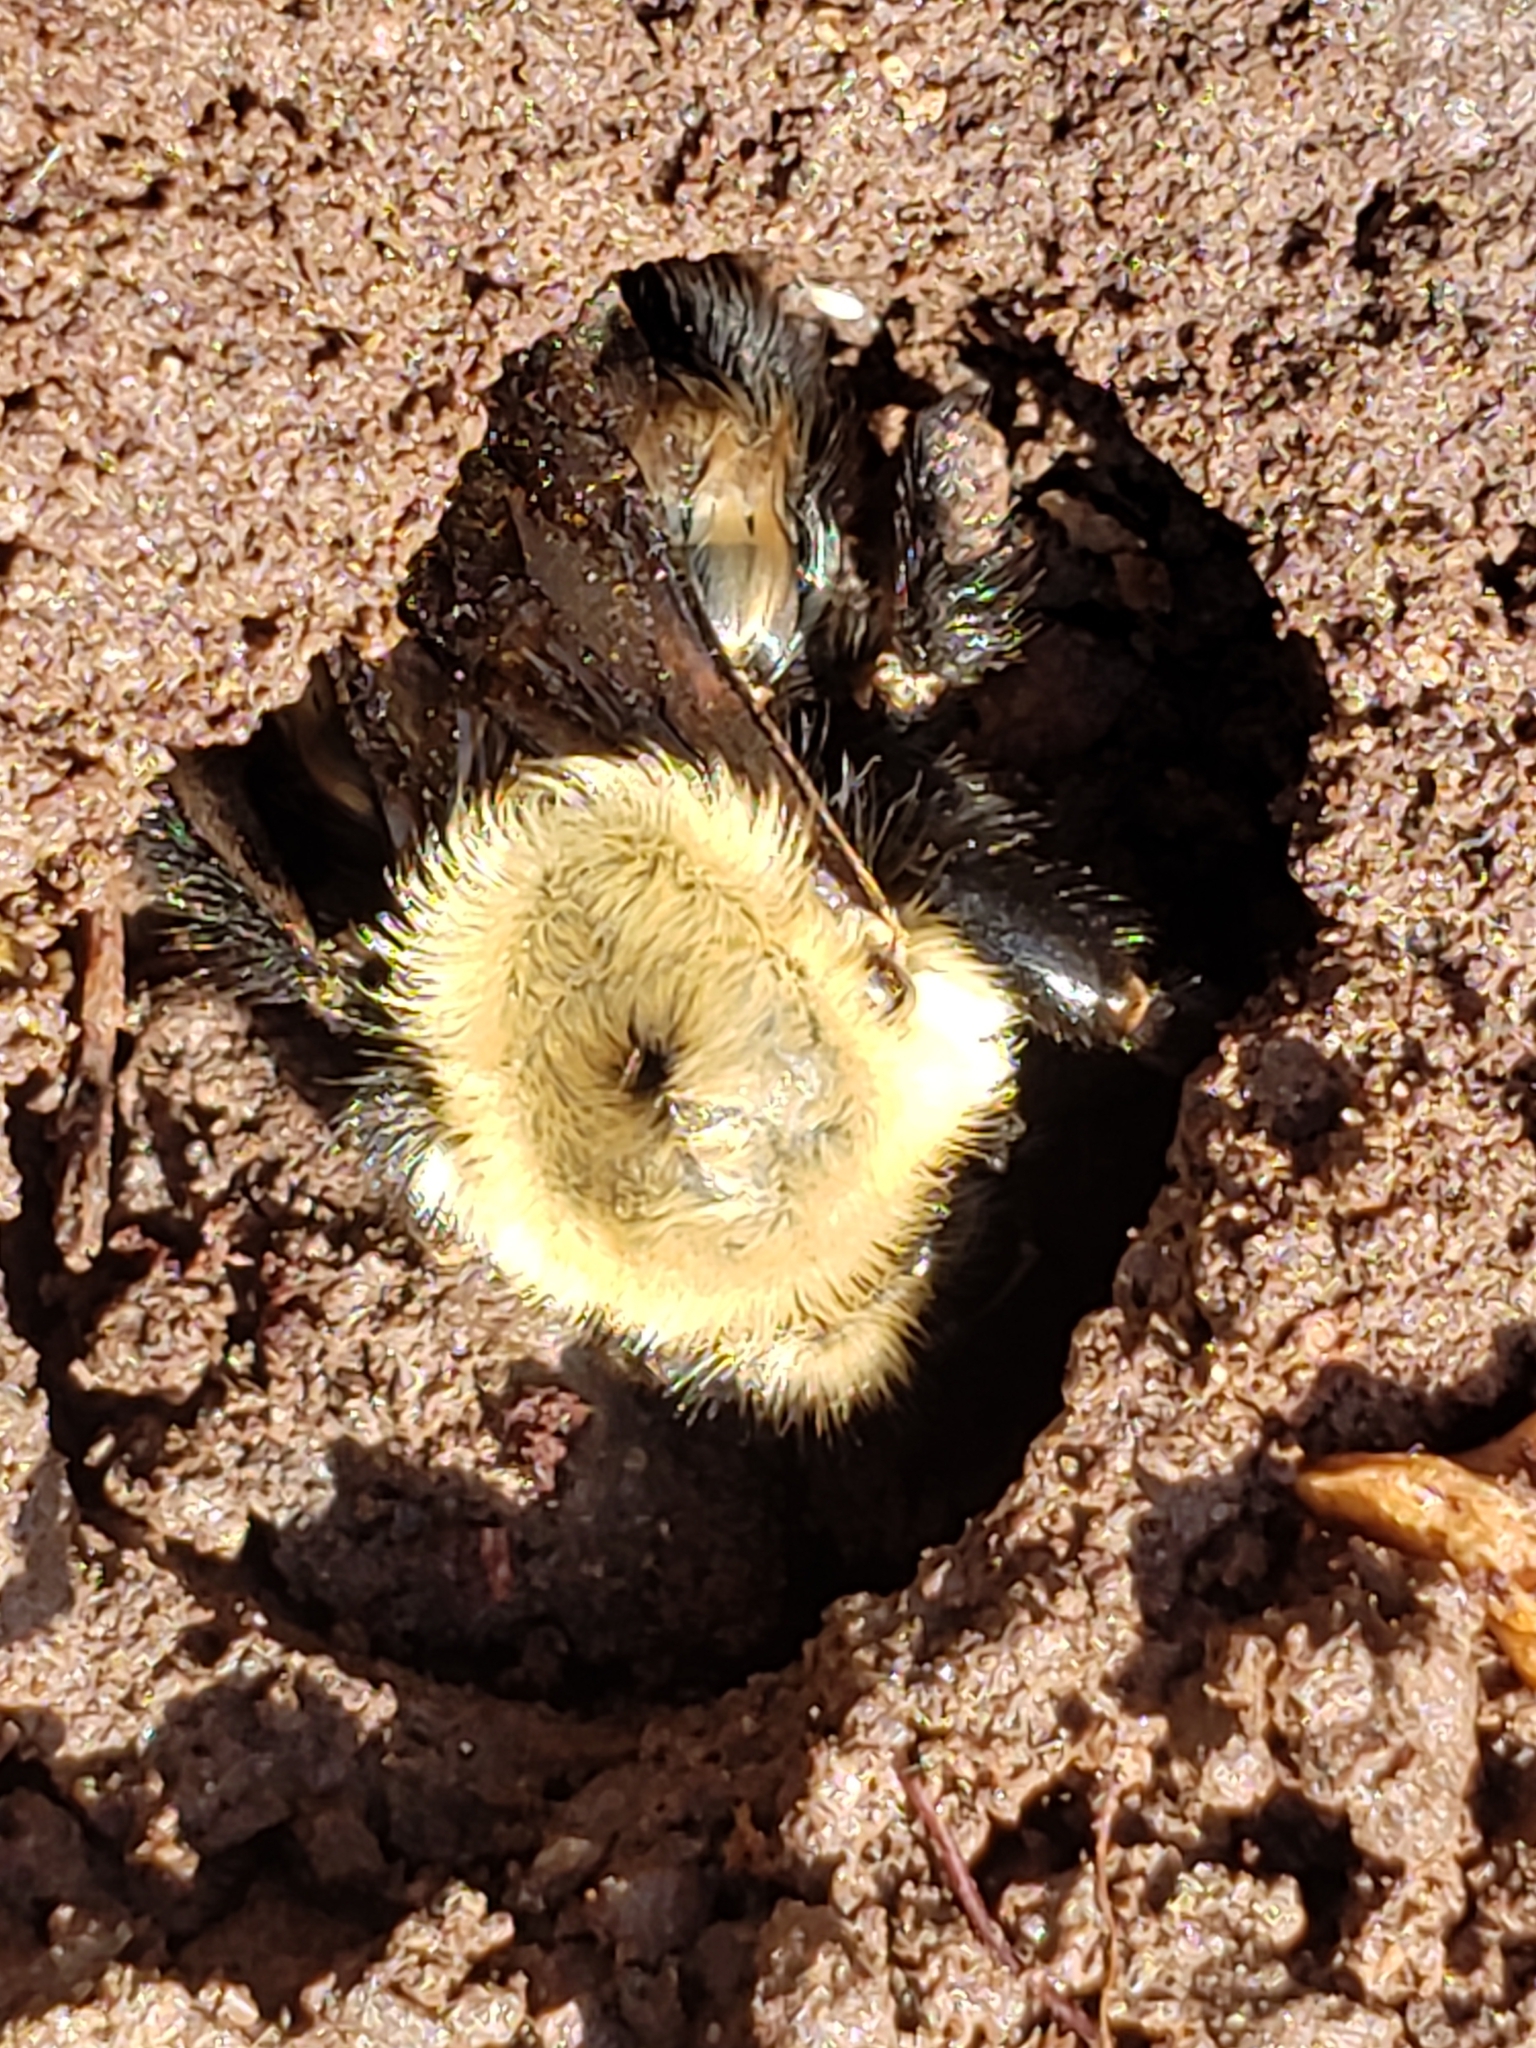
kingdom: Animalia
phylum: Arthropoda
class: Insecta
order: Hymenoptera
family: Apidae
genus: Bombus
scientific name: Bombus griseocollis
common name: Brown-belted bumble bee
